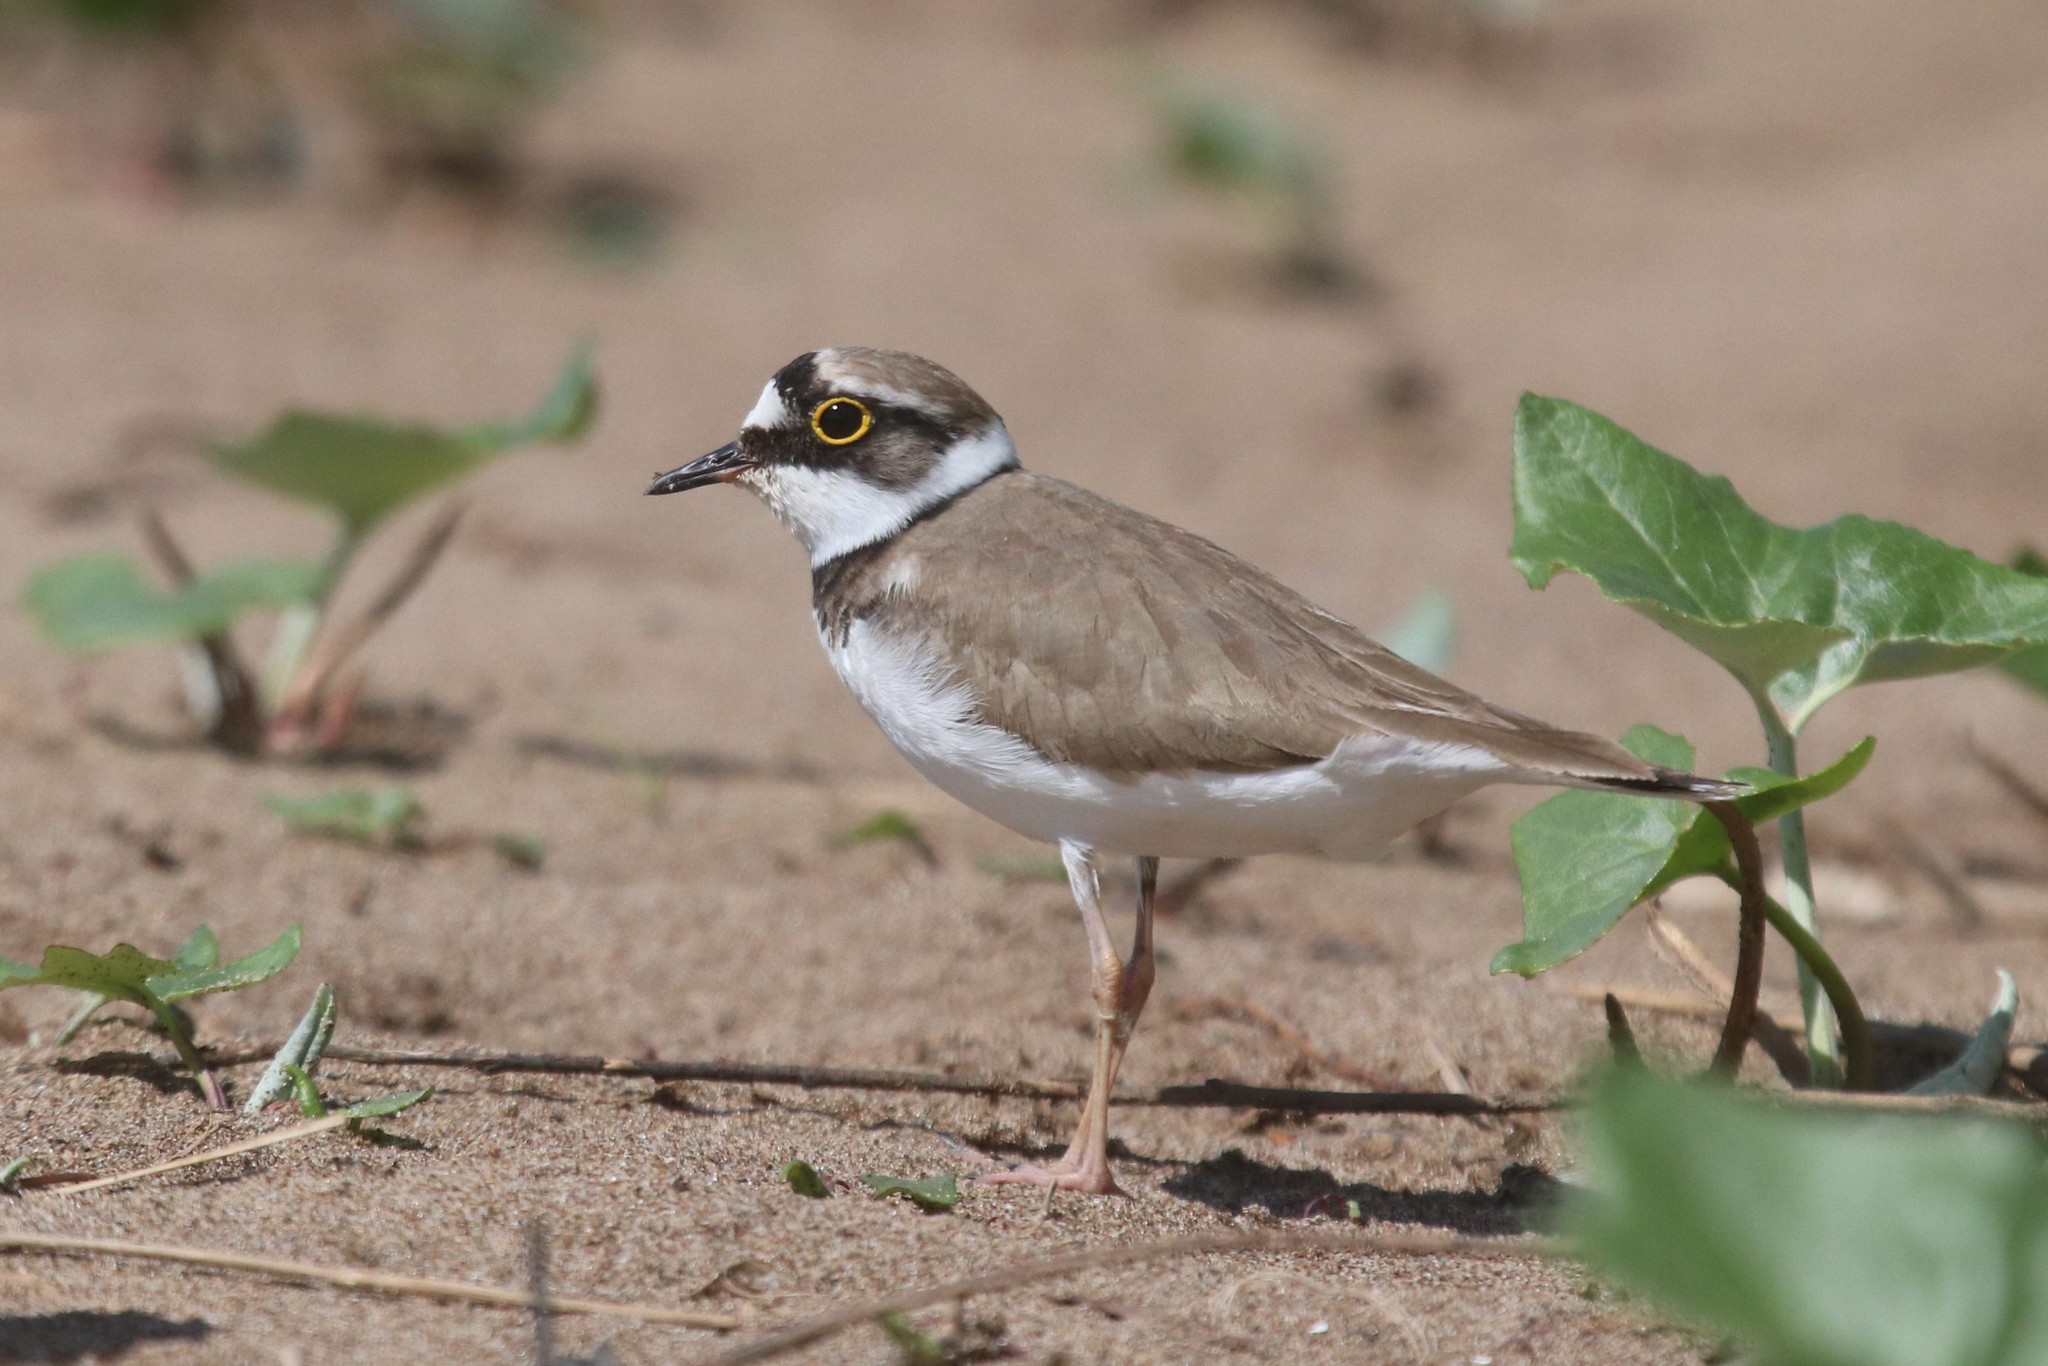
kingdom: Animalia
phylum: Chordata
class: Aves
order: Charadriiformes
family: Charadriidae
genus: Charadrius
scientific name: Charadrius dubius
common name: Little ringed plover
